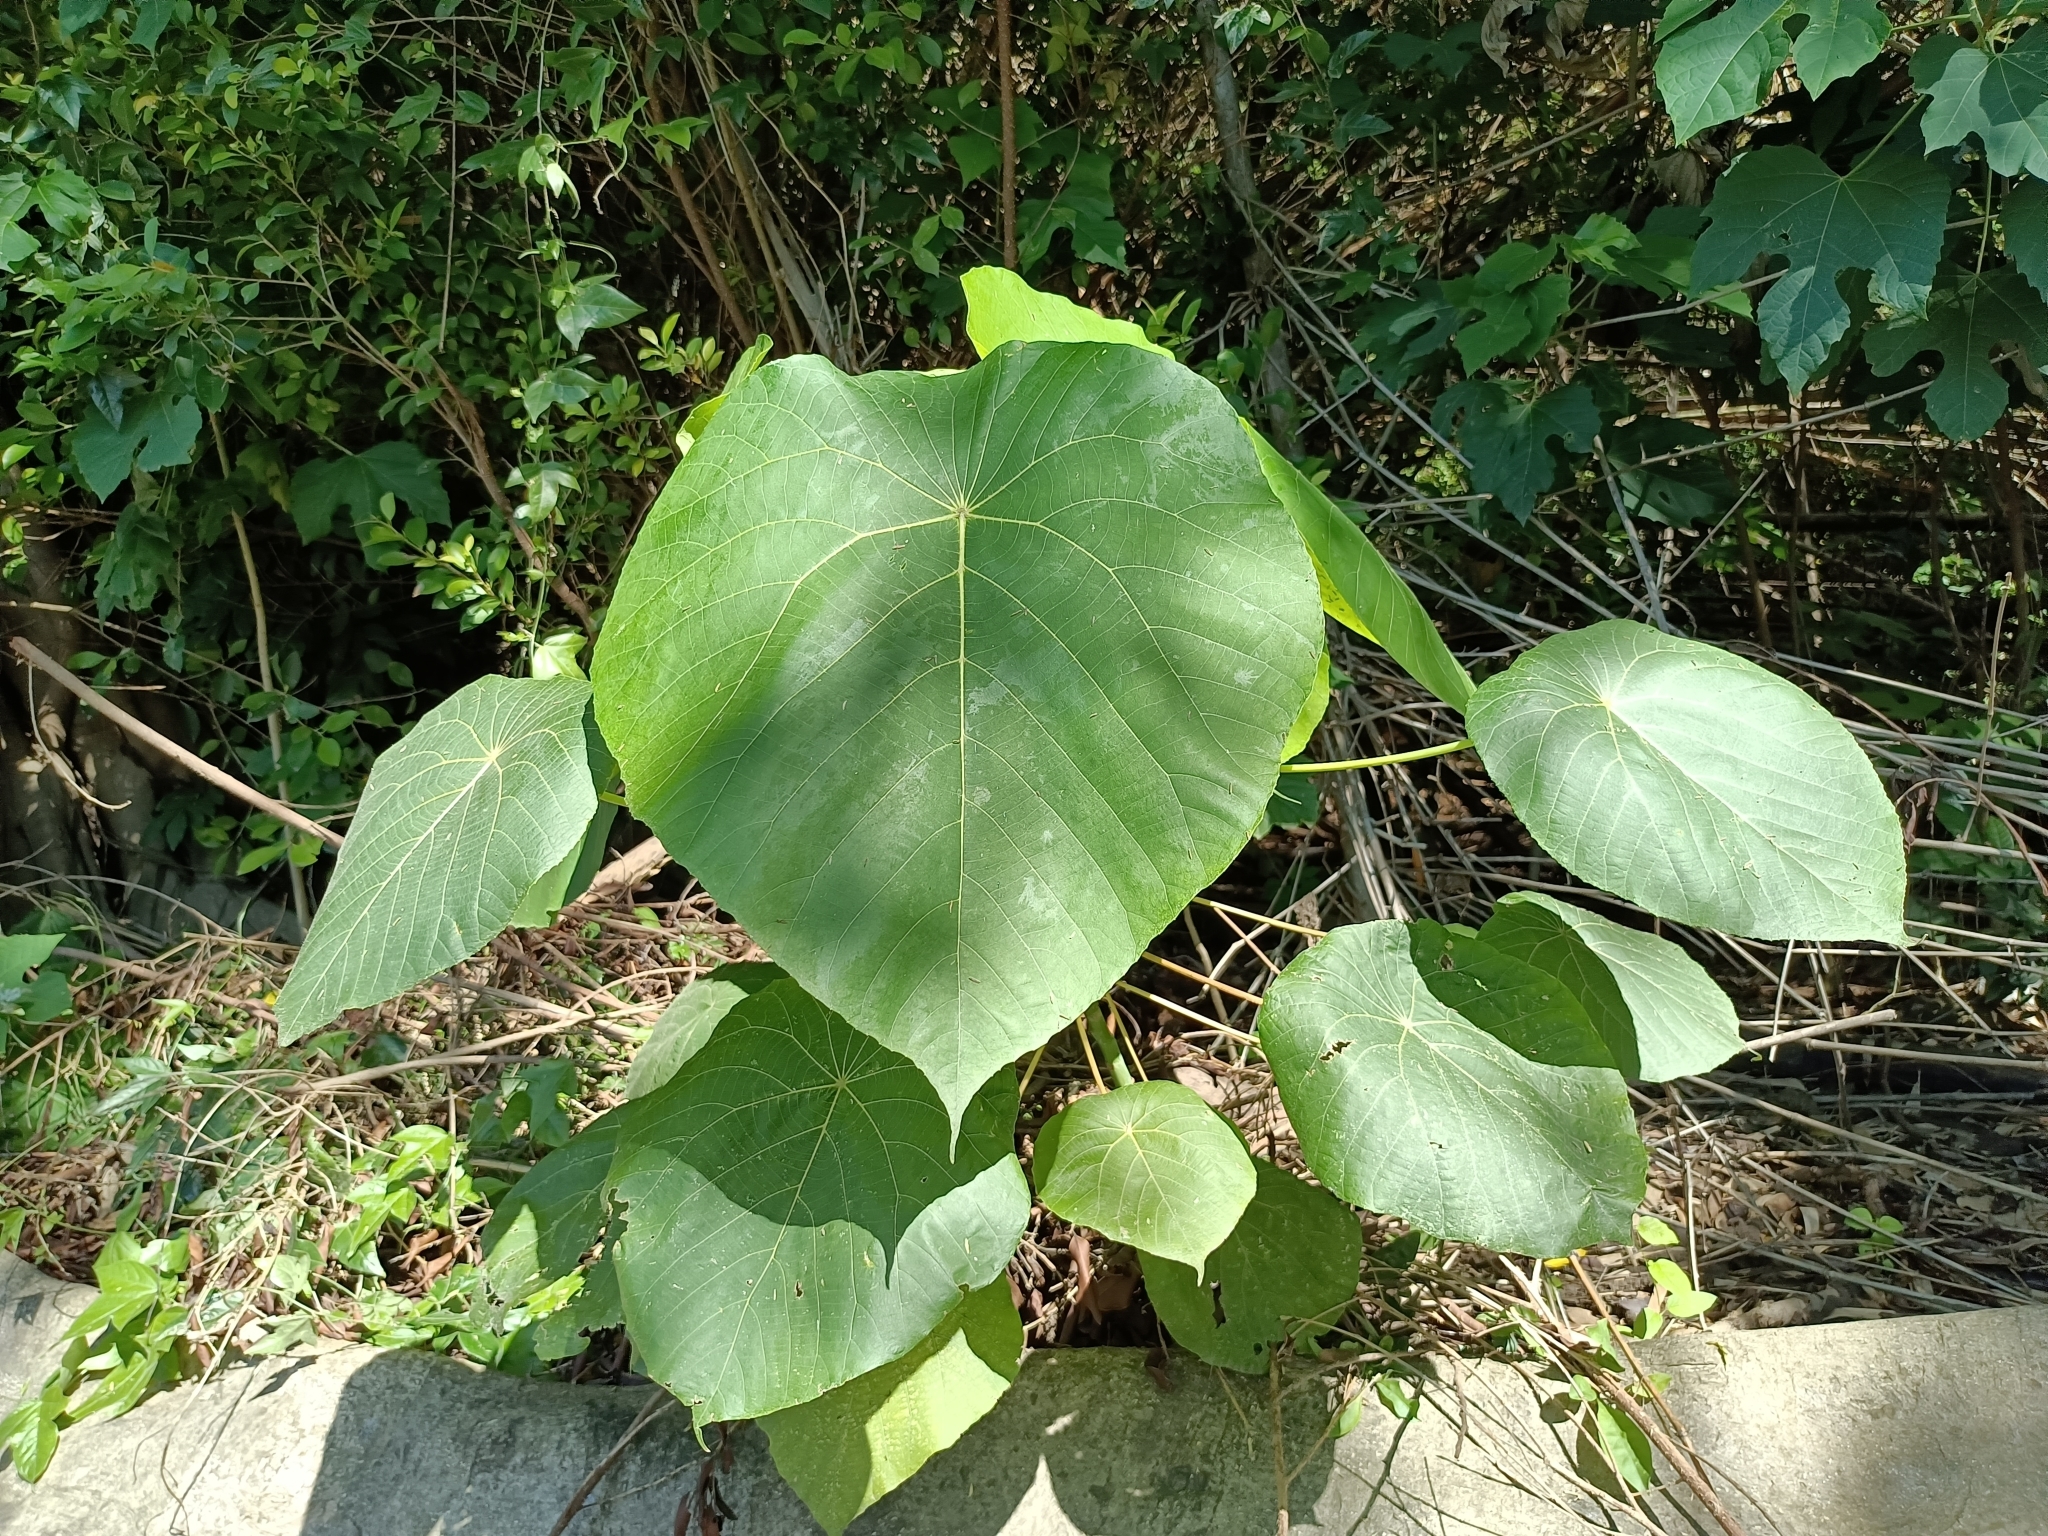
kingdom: Plantae
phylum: Tracheophyta
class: Magnoliopsida
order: Malpighiales
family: Euphorbiaceae
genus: Macaranga
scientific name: Macaranga tanarius
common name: Parasol leaf tree
